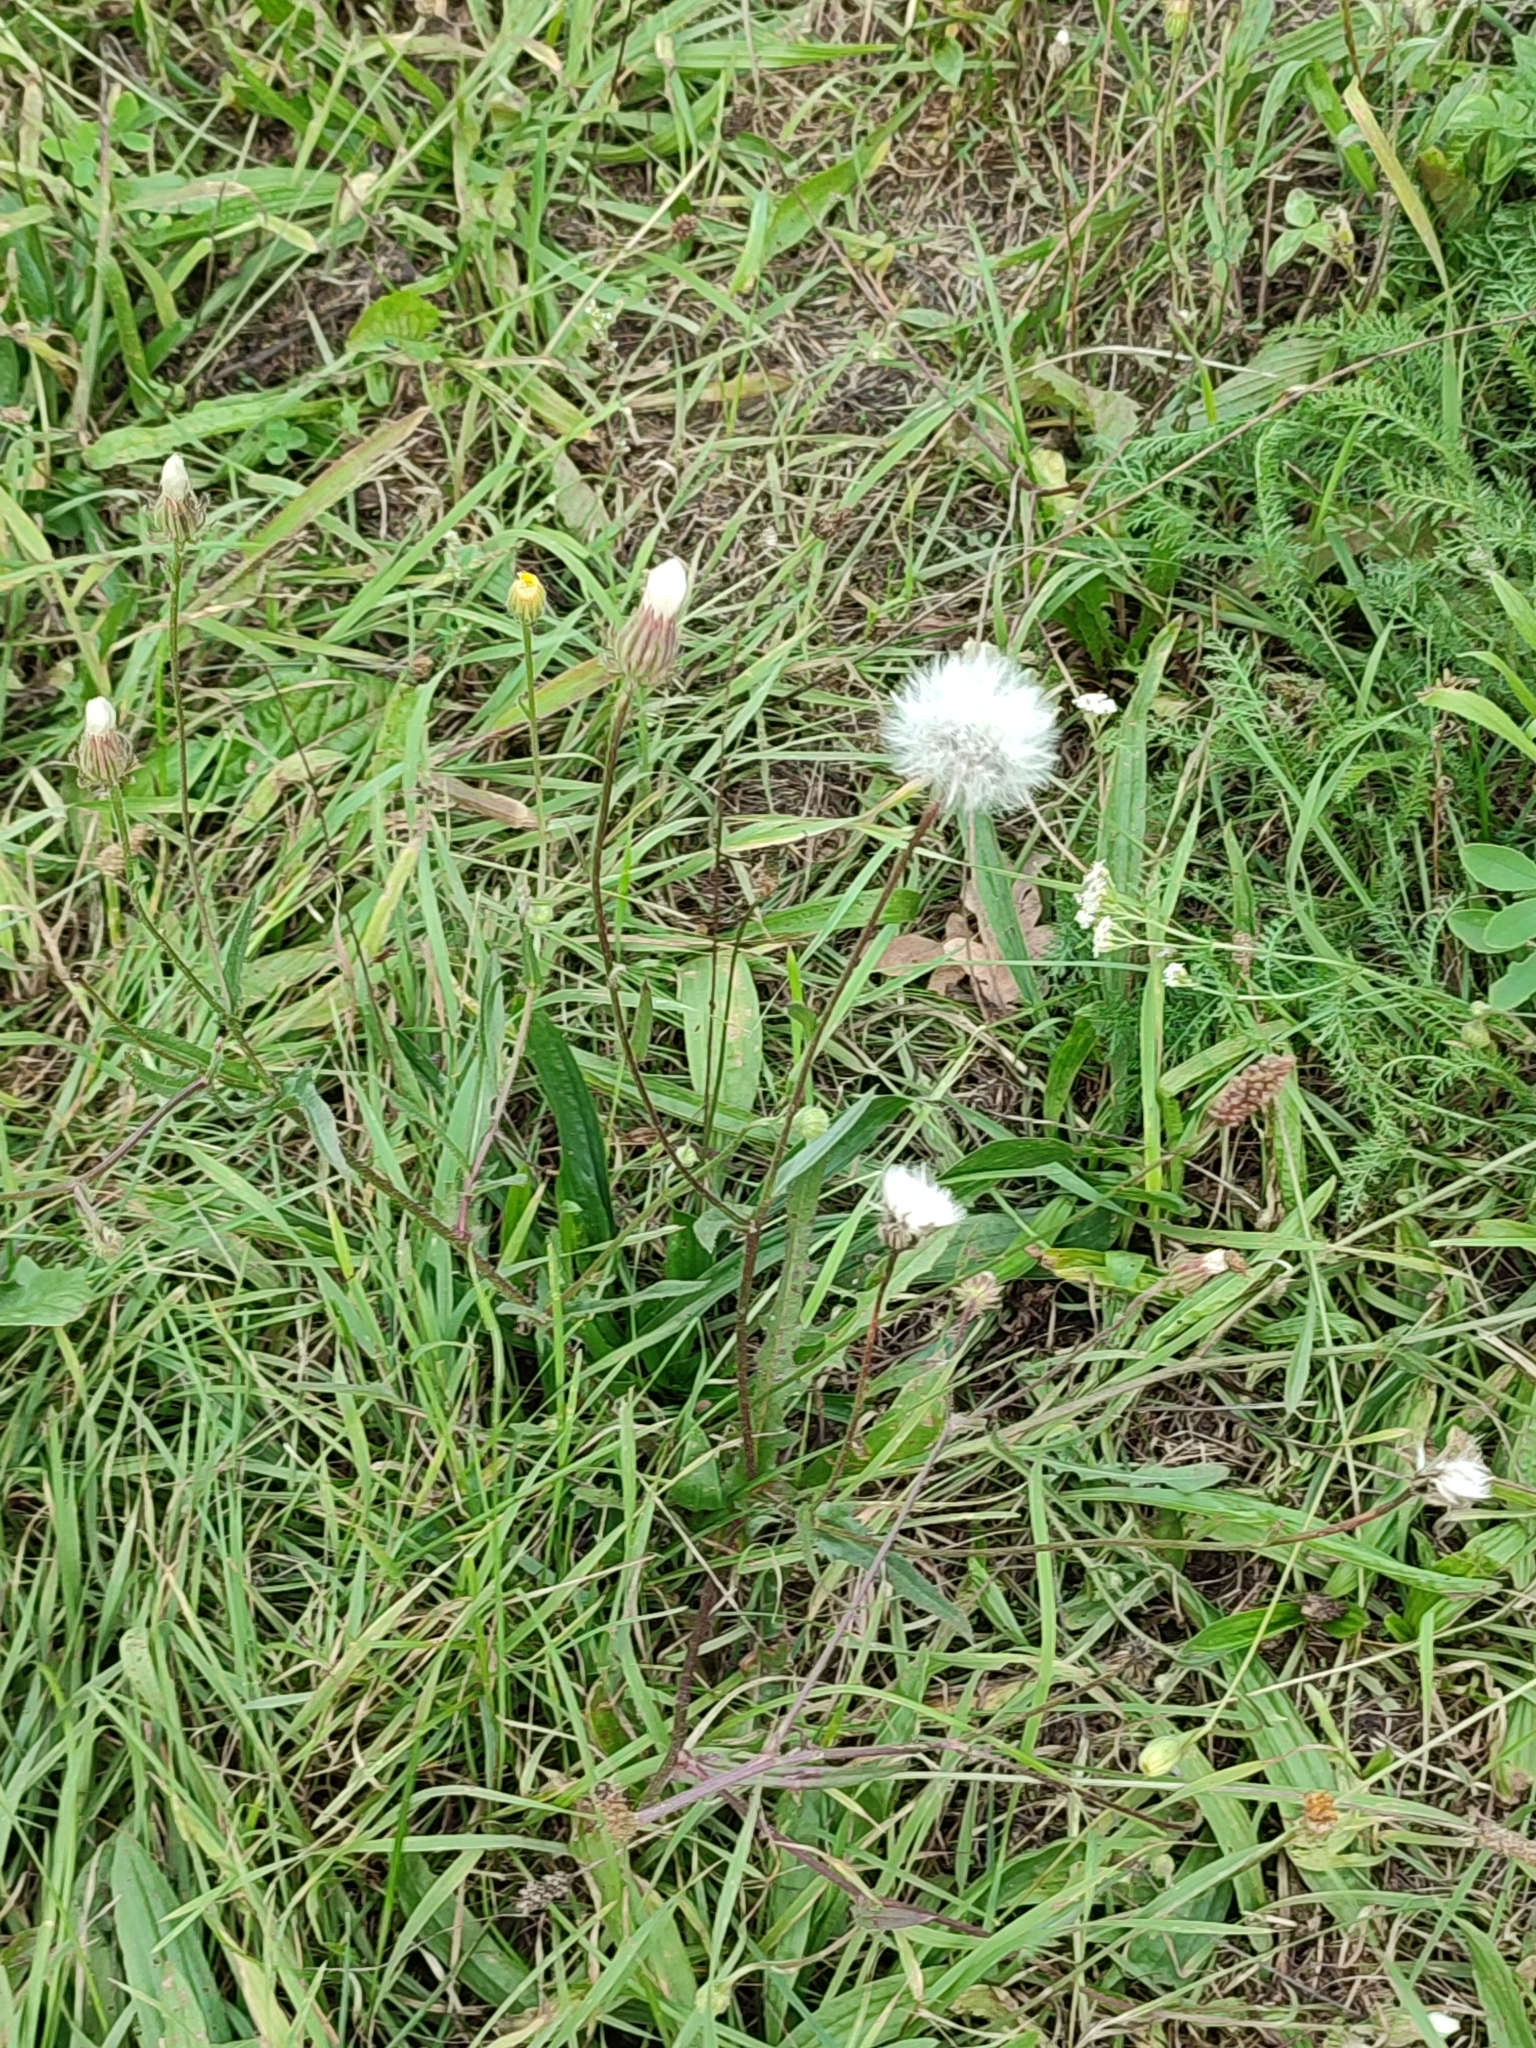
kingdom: Plantae
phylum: Tracheophyta
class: Magnoliopsida
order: Asterales
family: Asteraceae
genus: Crepis
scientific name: Crepis foetida
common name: Stinking hawk's-beard
